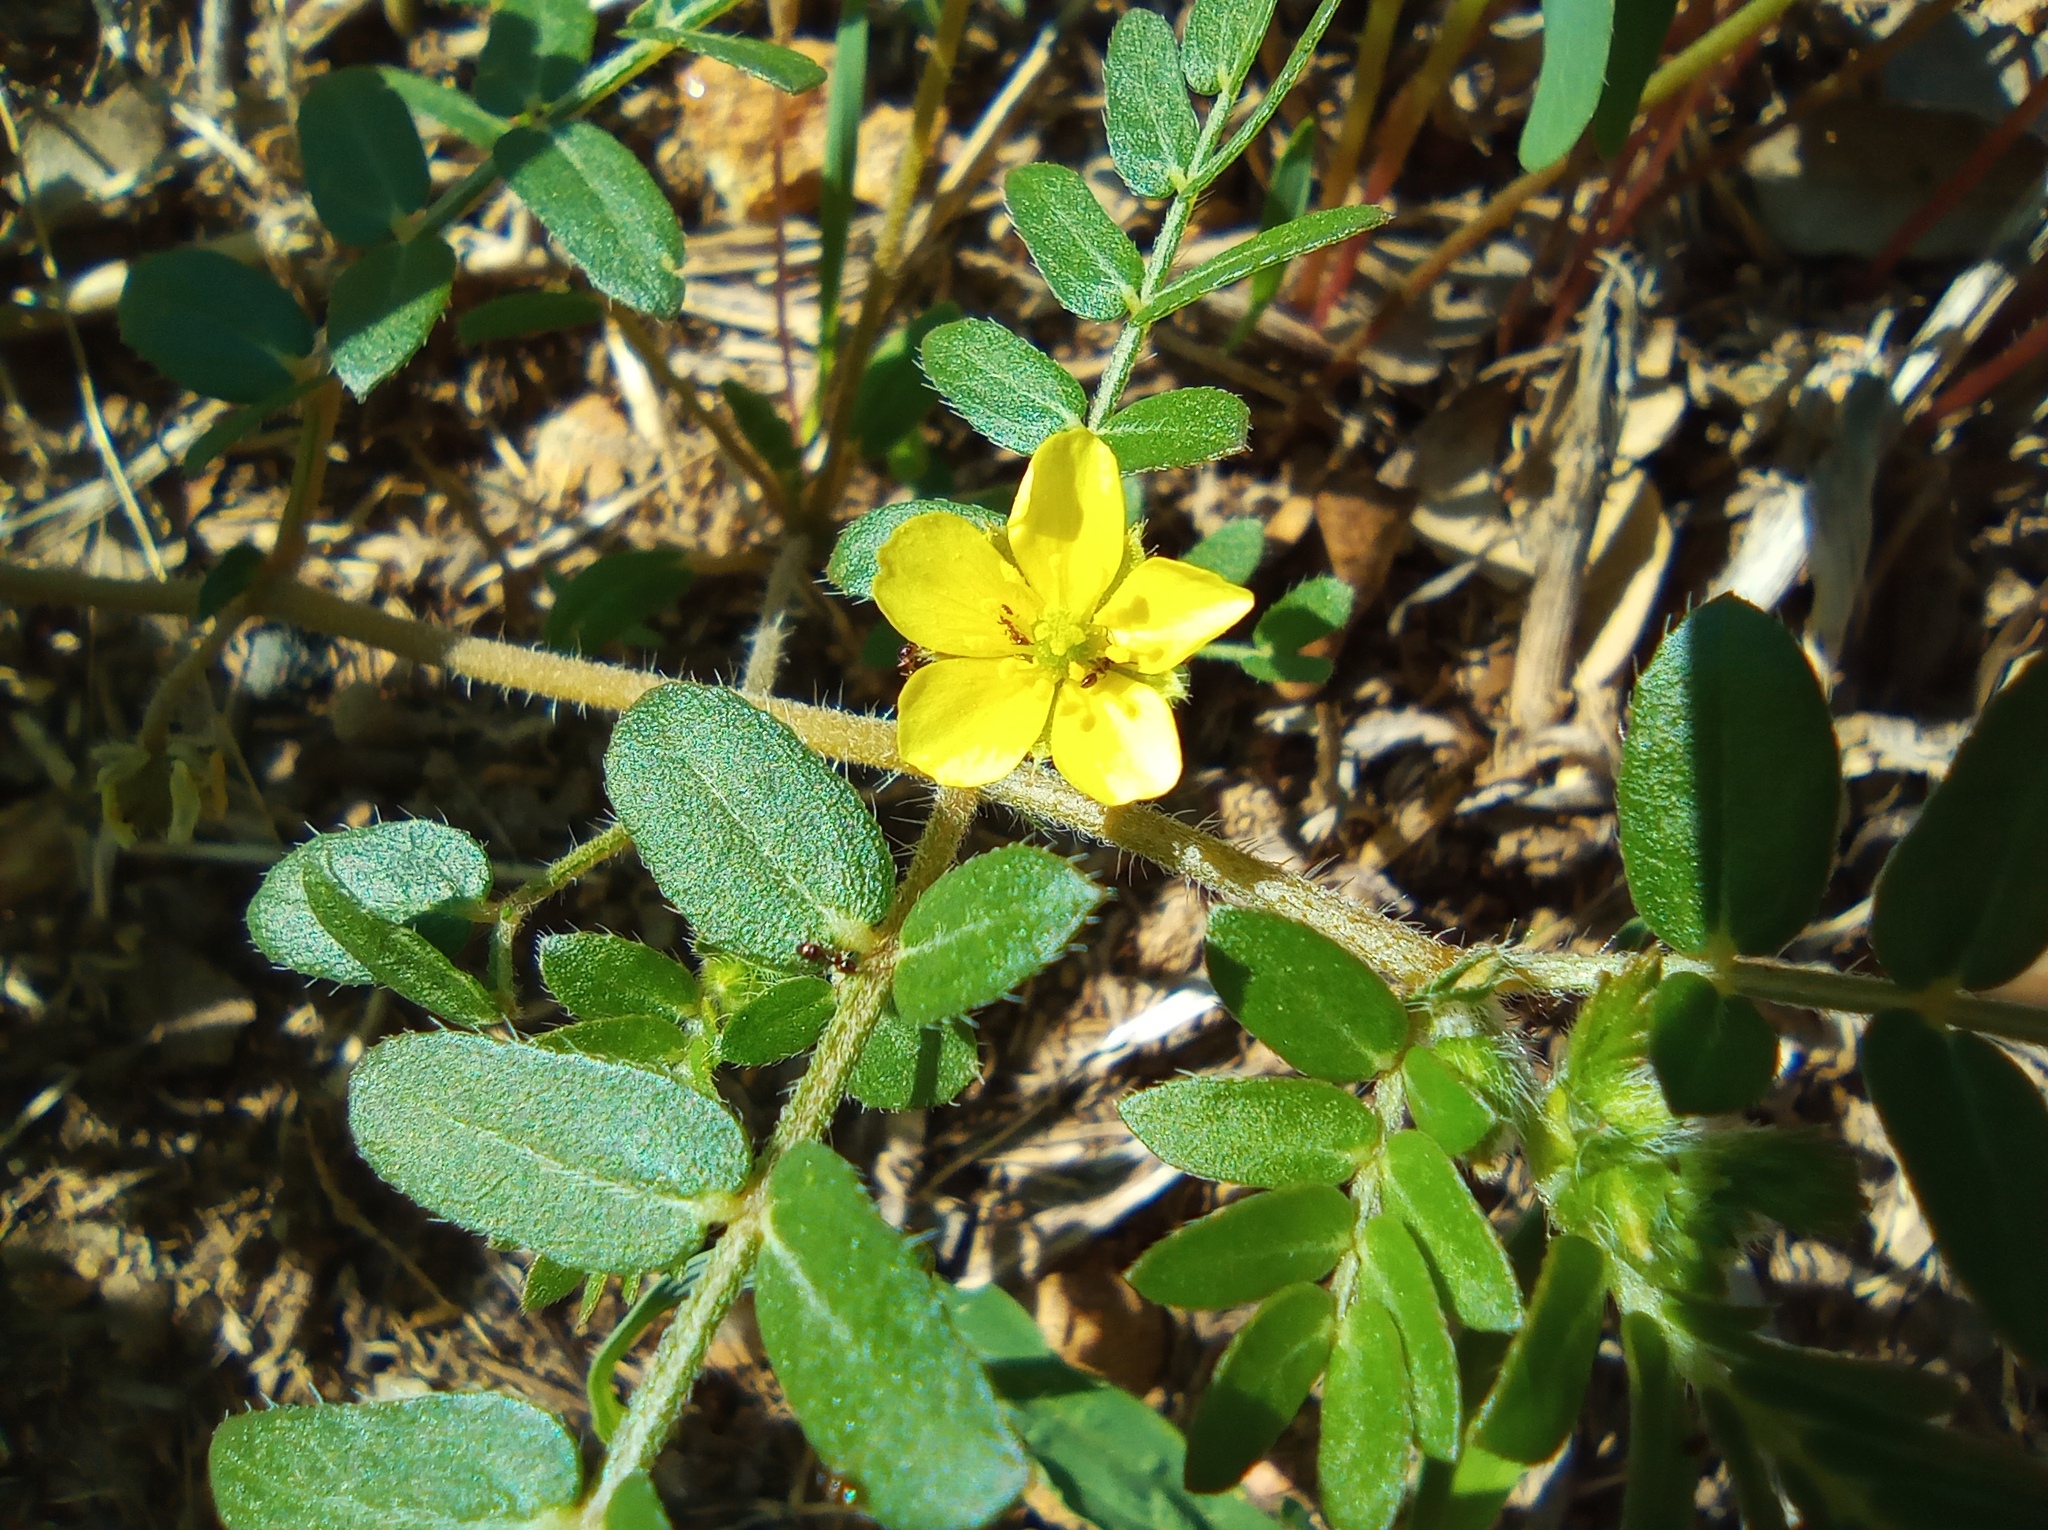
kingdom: Plantae
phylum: Tracheophyta
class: Magnoliopsida
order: Zygophyllales
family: Zygophyllaceae
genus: Tribulus
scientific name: Tribulus terrestris
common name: Puncturevine
